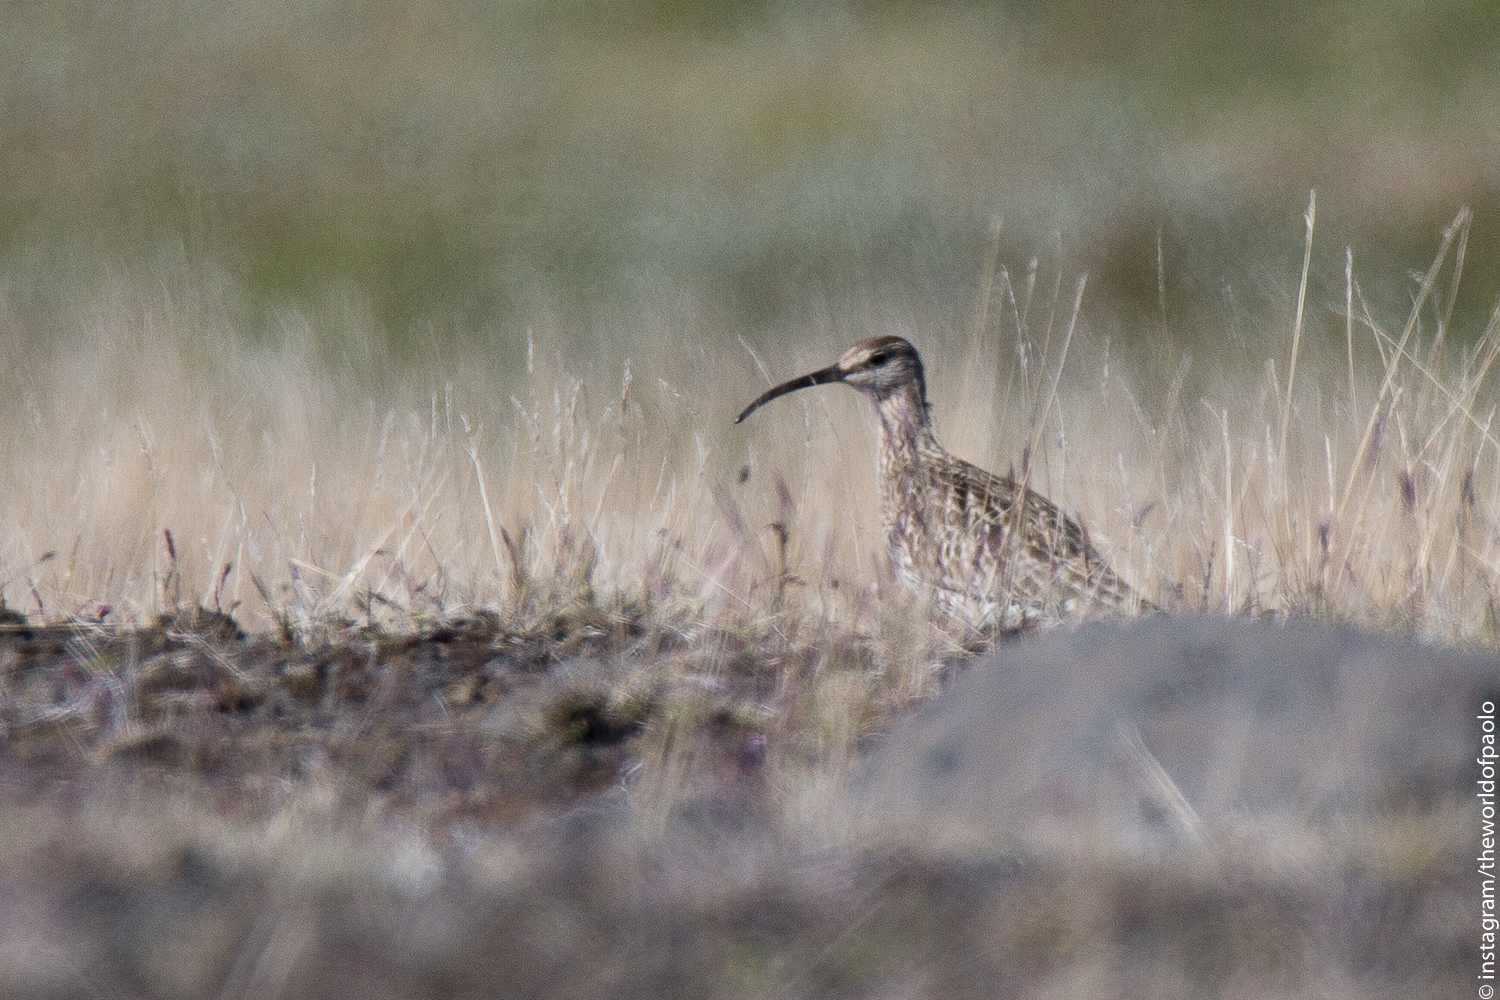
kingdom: Animalia
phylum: Chordata
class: Aves
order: Charadriiformes
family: Scolopacidae
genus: Numenius
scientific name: Numenius phaeopus
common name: Whimbrel
